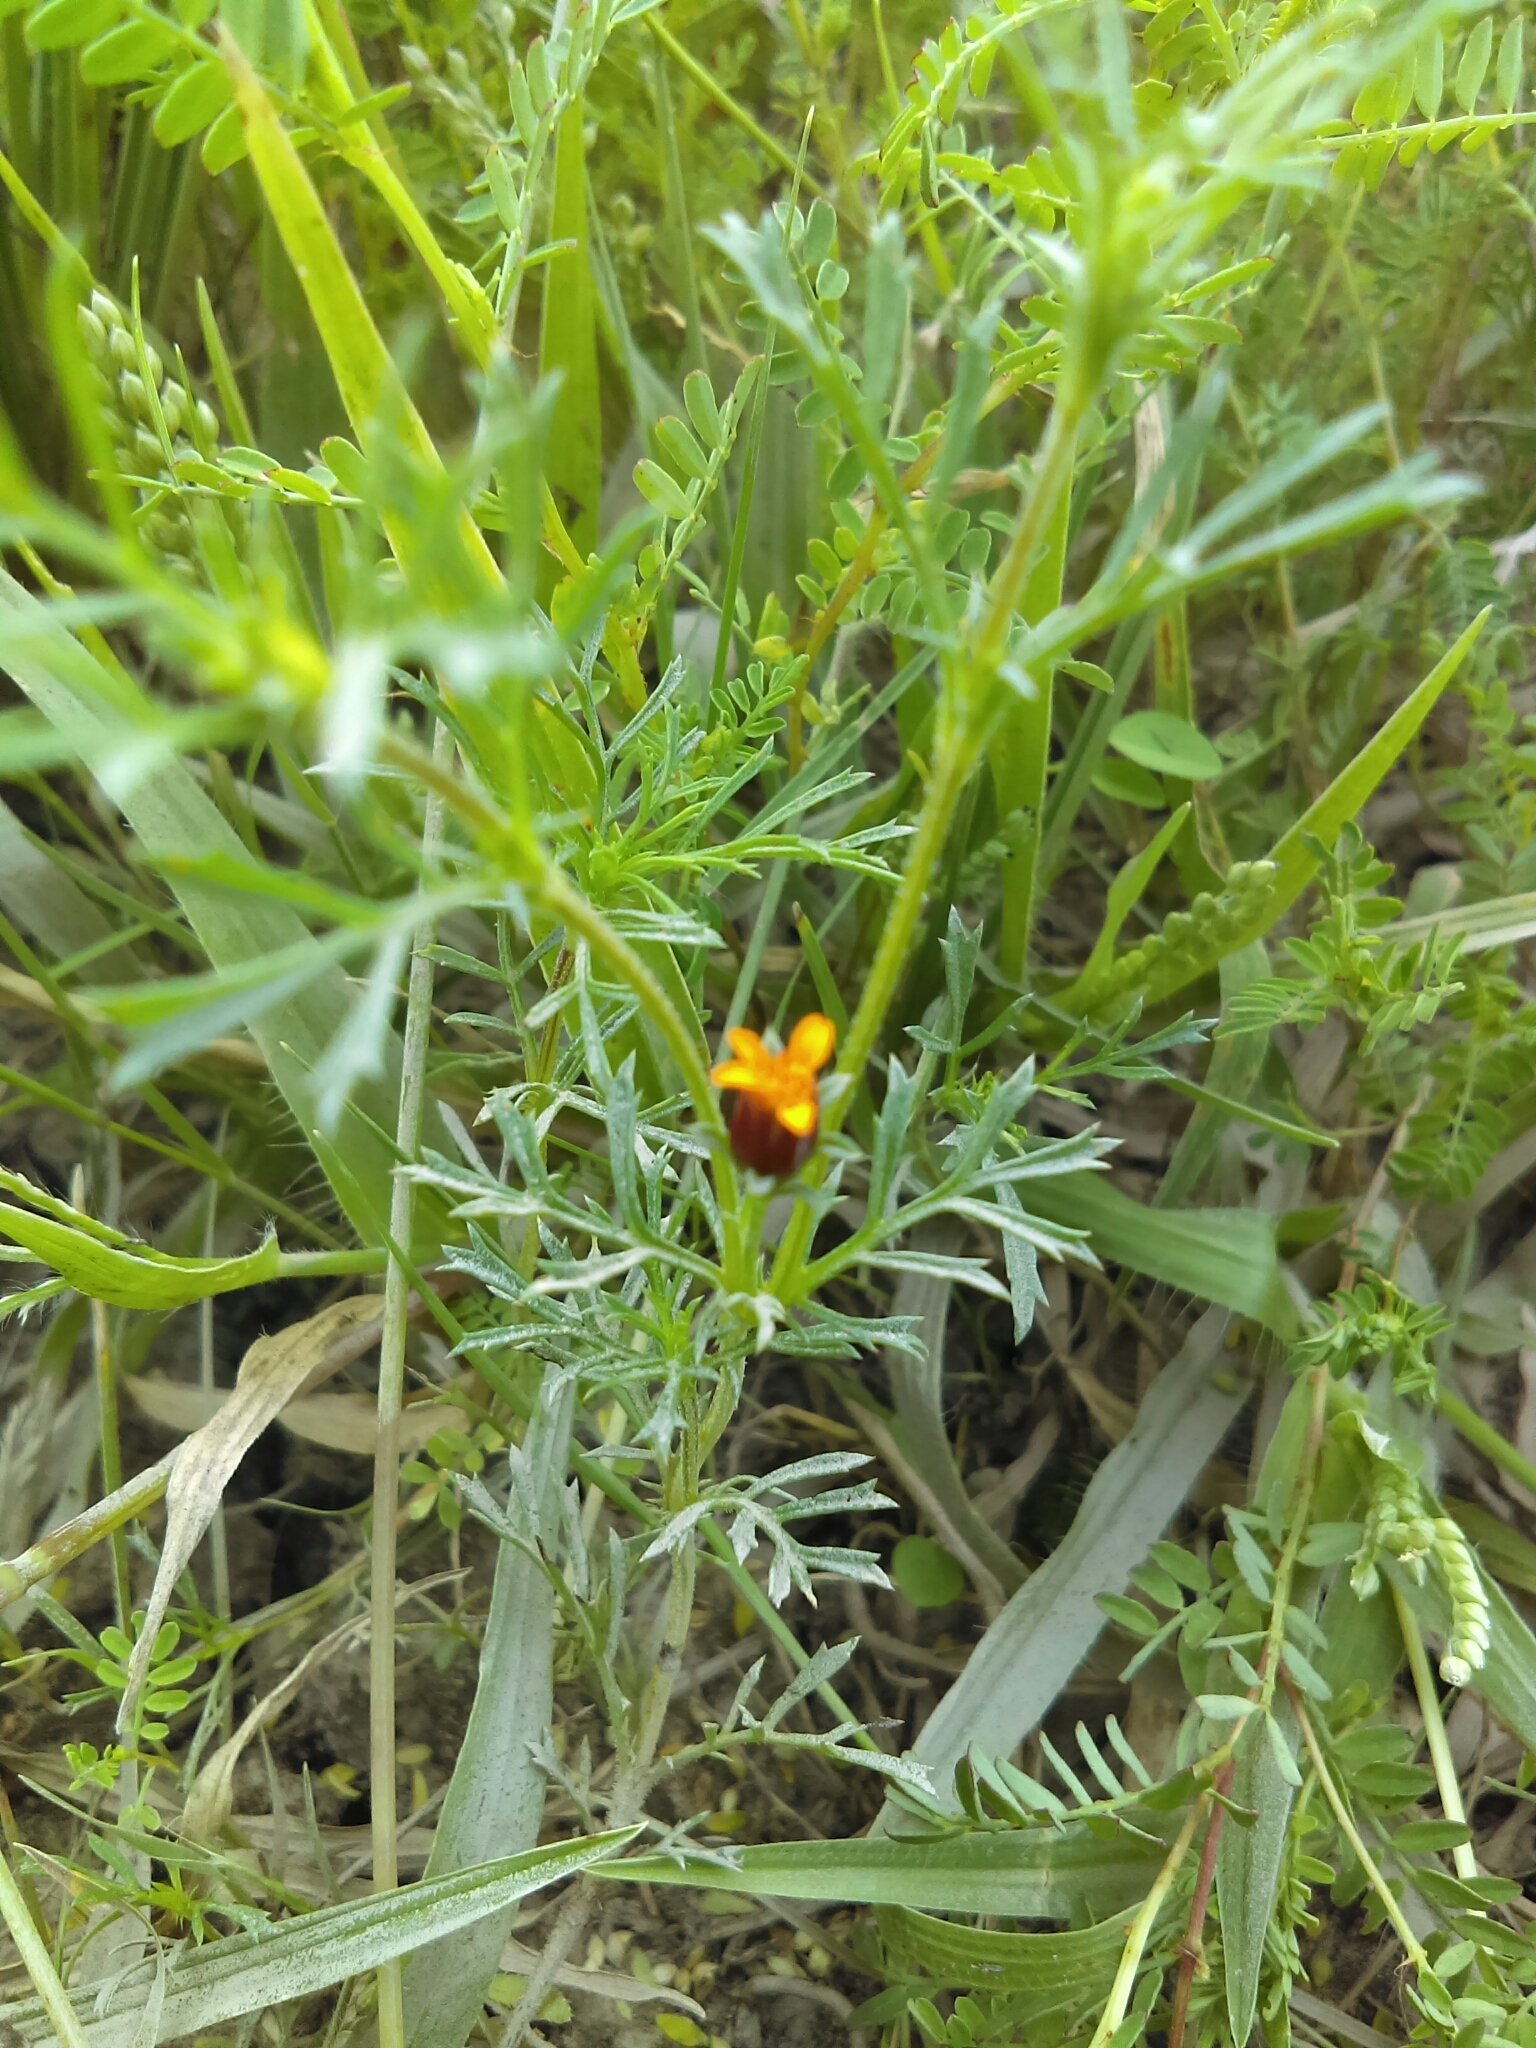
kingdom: Plantae
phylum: Tracheophyta
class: Magnoliopsida
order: Asterales
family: Asteraceae
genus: Dyssodia
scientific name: Dyssodia papposa
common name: Dogweed
